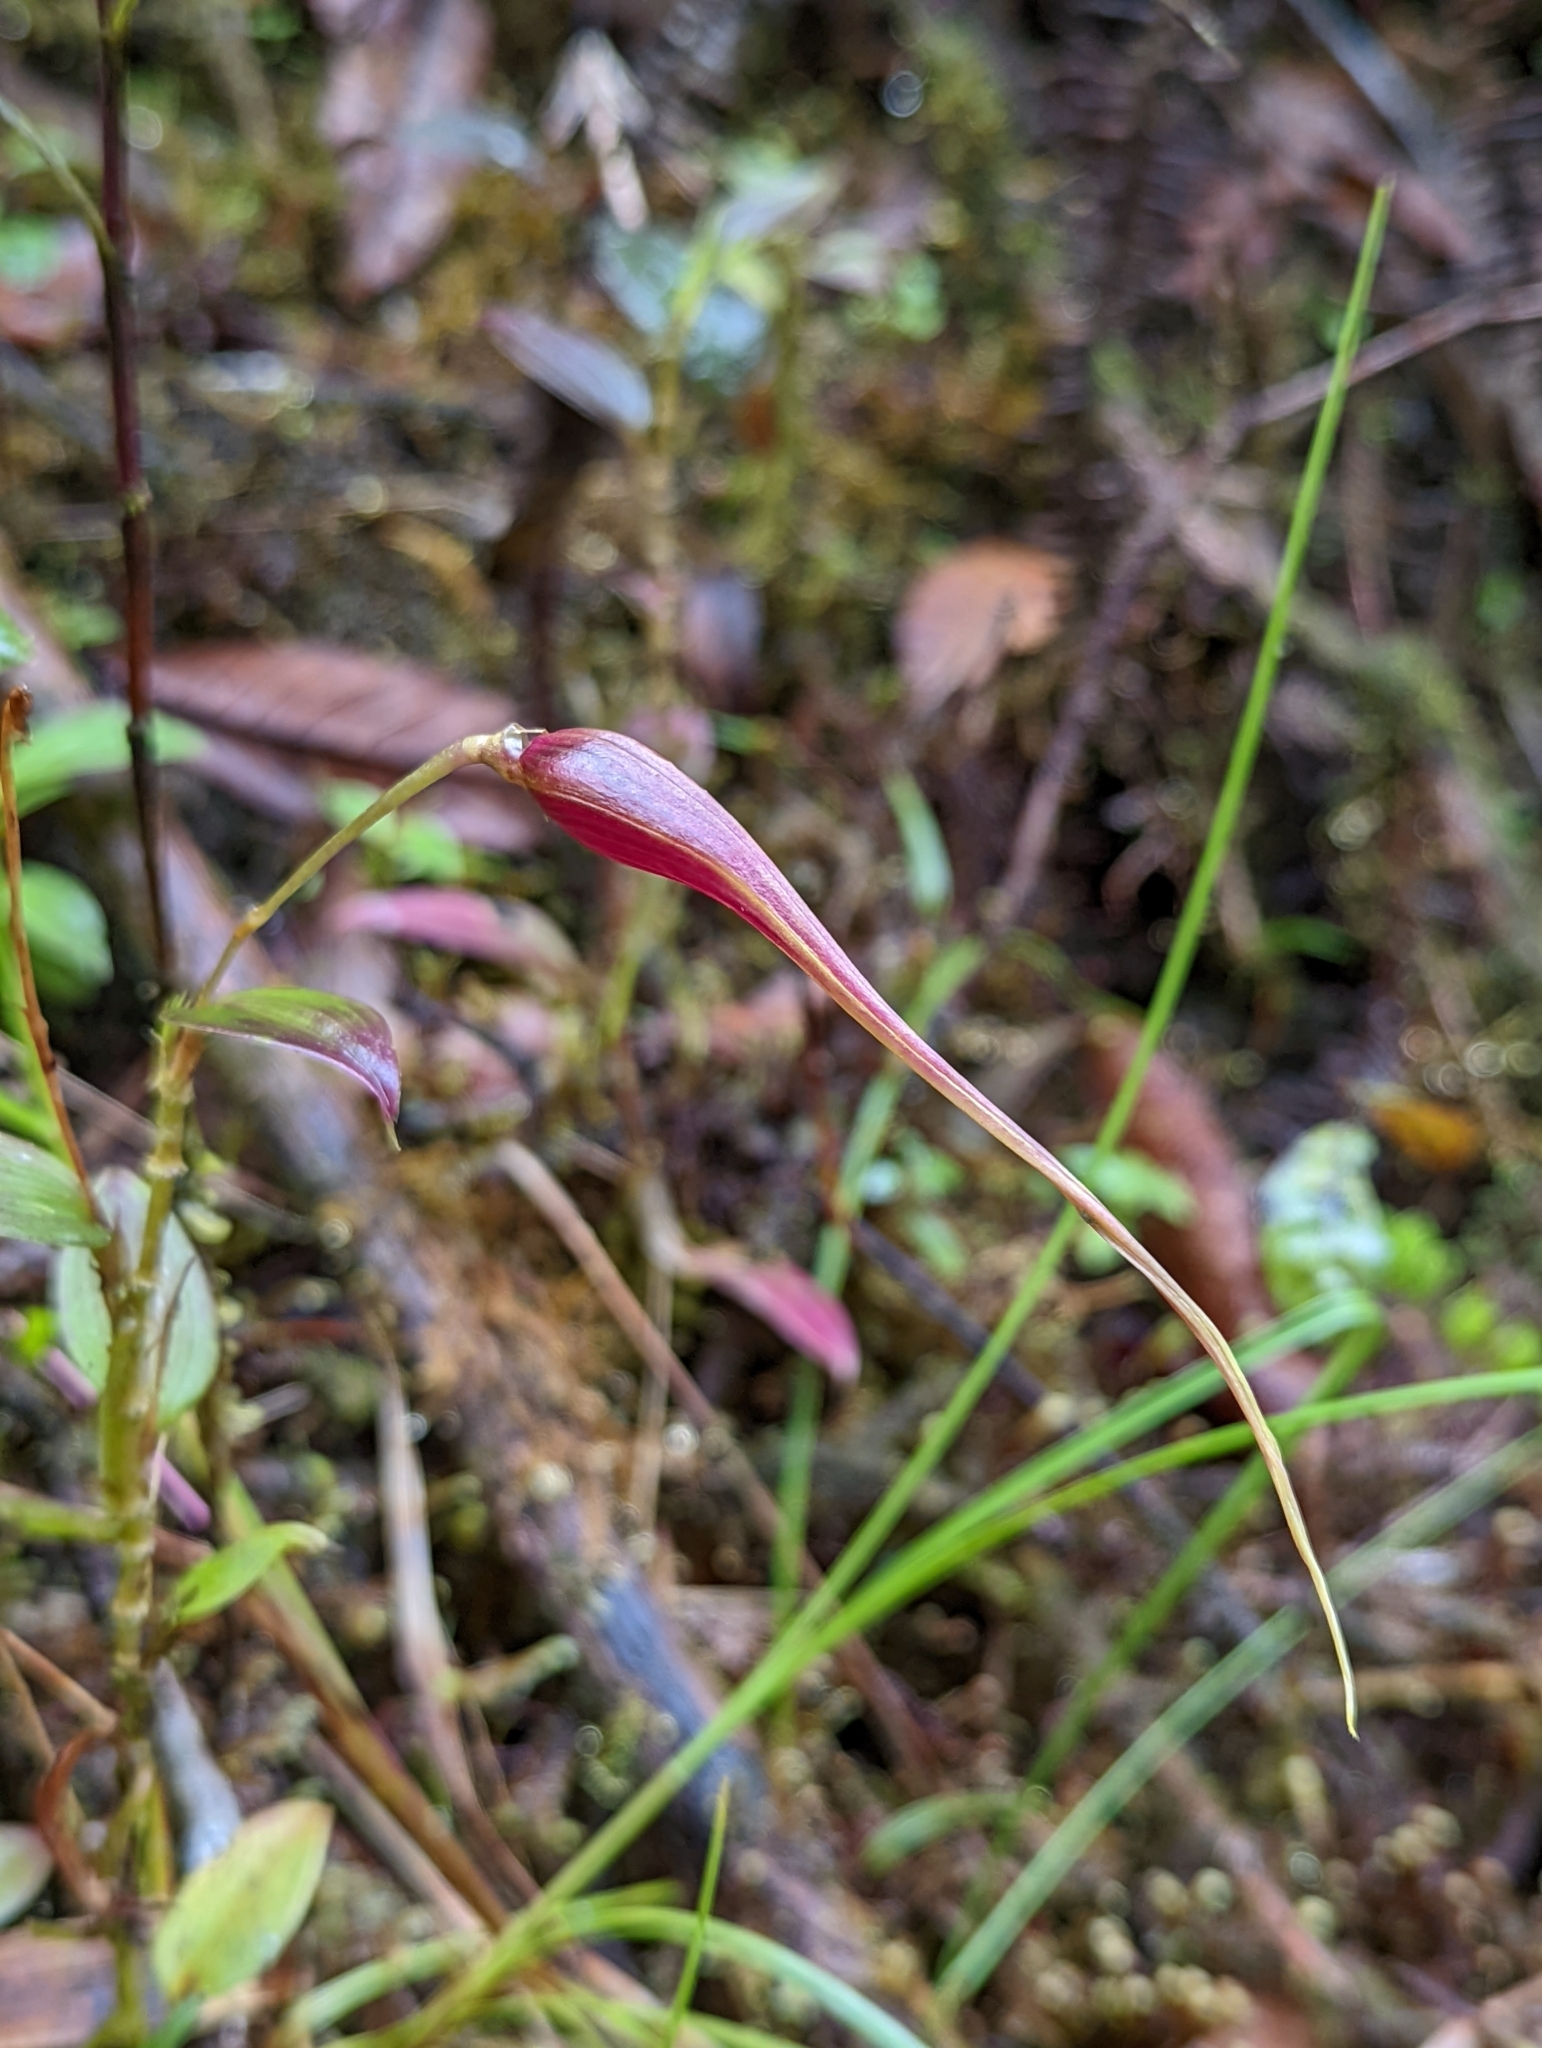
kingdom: Plantae
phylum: Tracheophyta
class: Liliopsida
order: Asparagales
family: Orchidaceae
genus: Brachionidium
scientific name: Brachionidium imperiale
